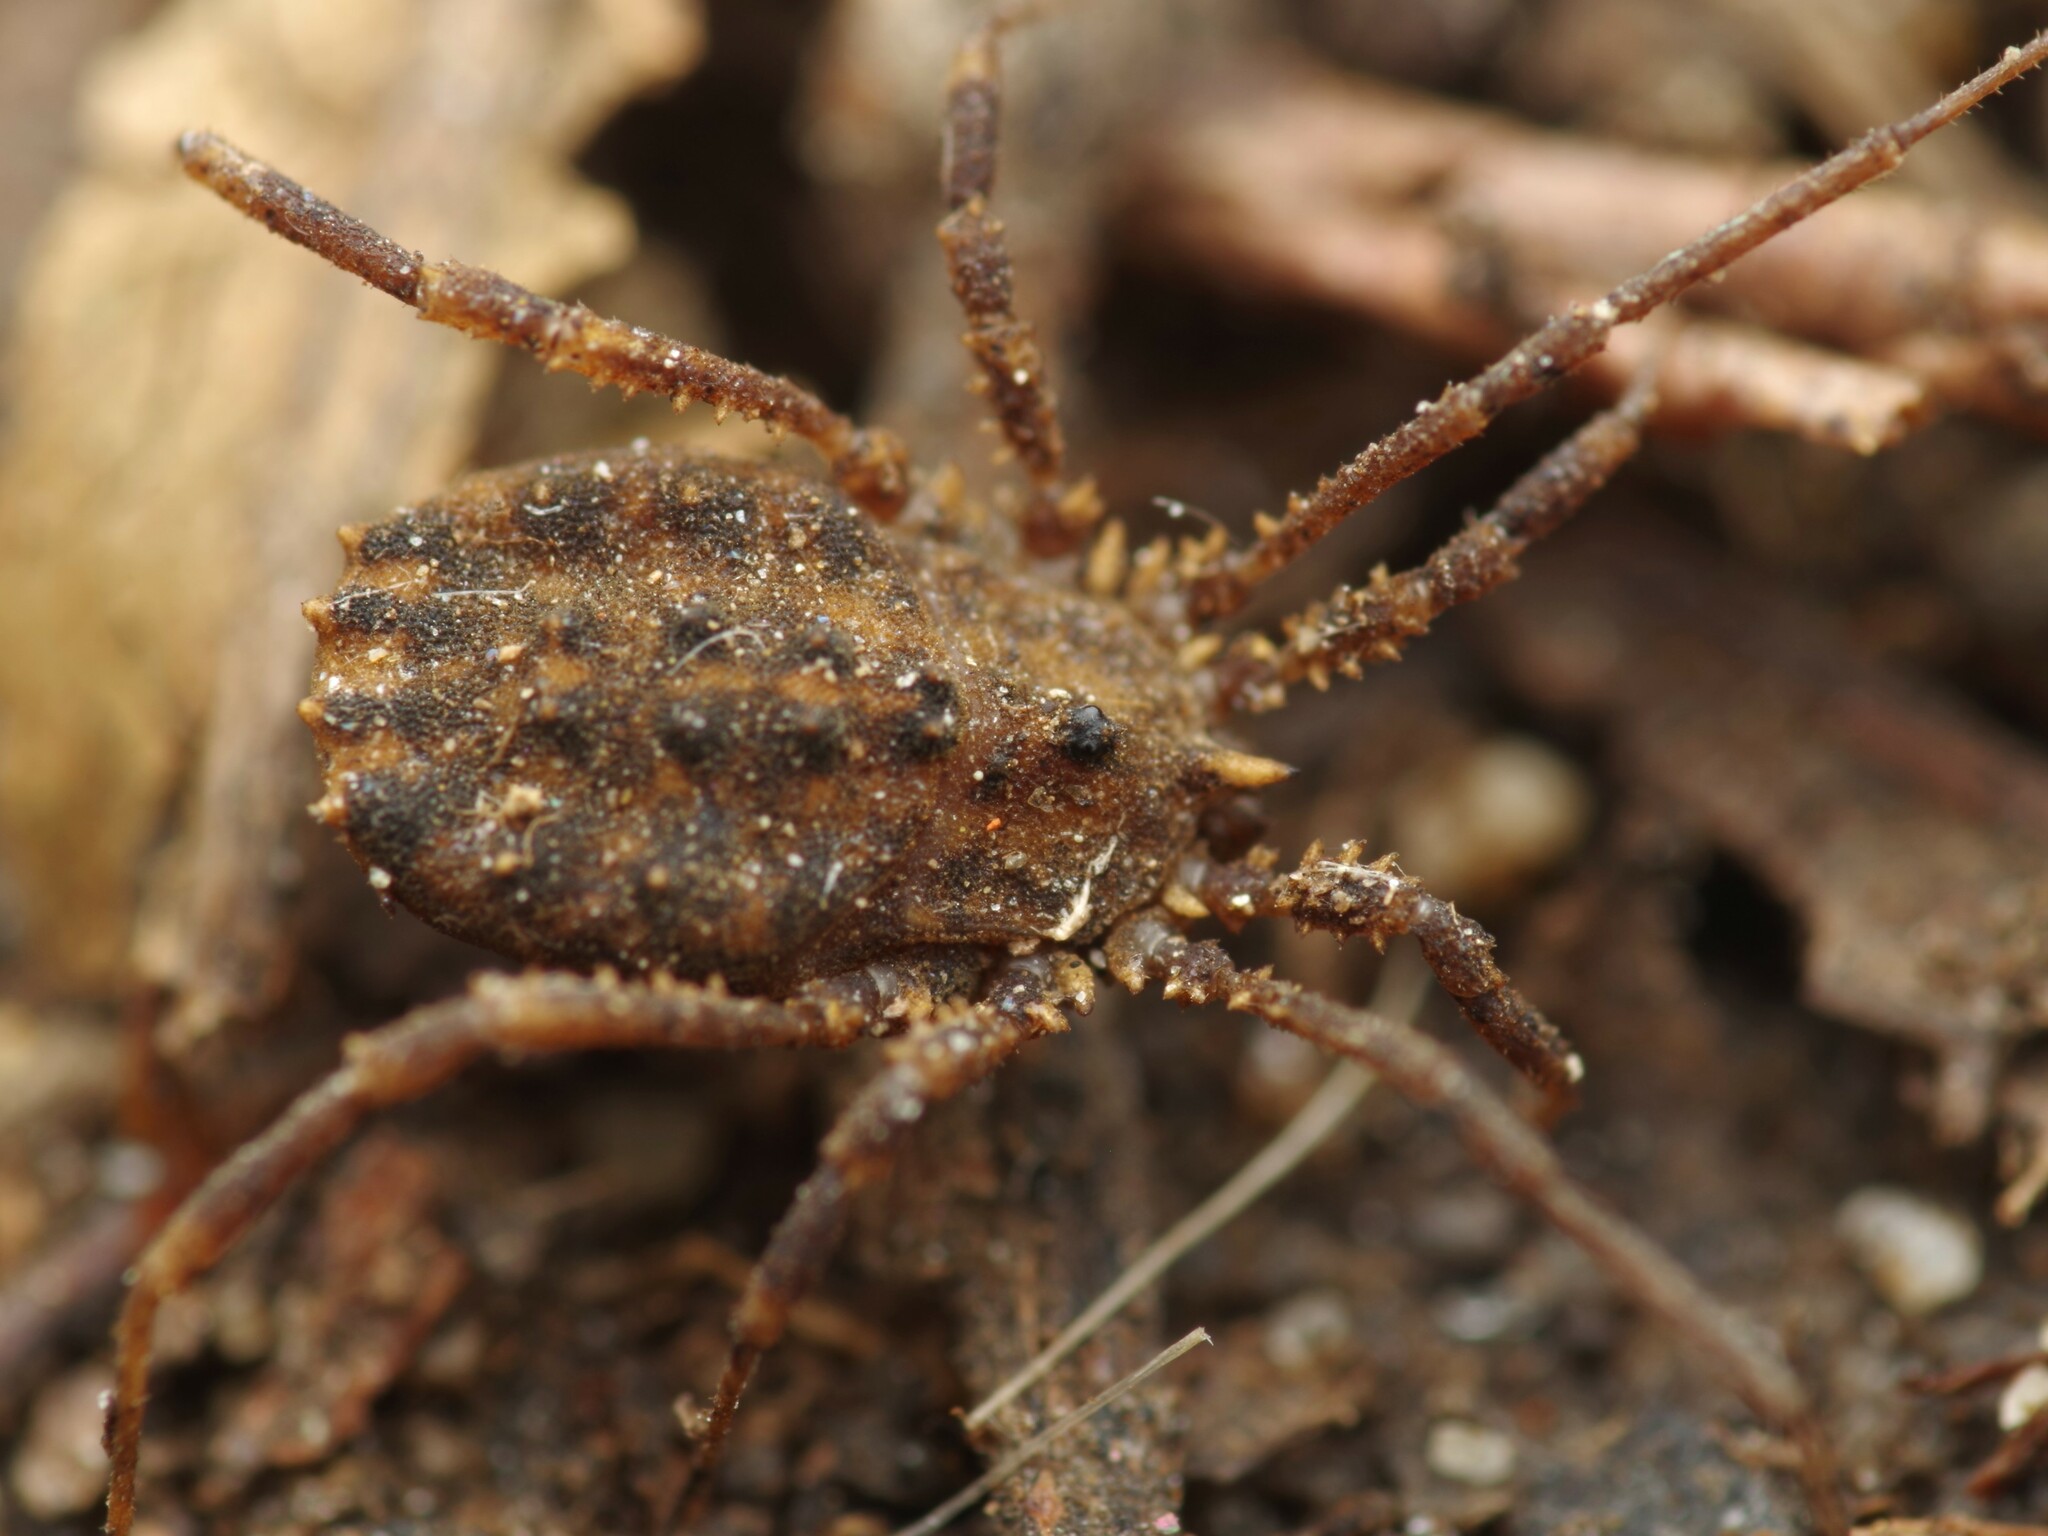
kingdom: Animalia
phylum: Arthropoda
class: Arachnida
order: Opiliones
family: Sclerosomatidae
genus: Homalenotus
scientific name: Homalenotus quadridentatus
